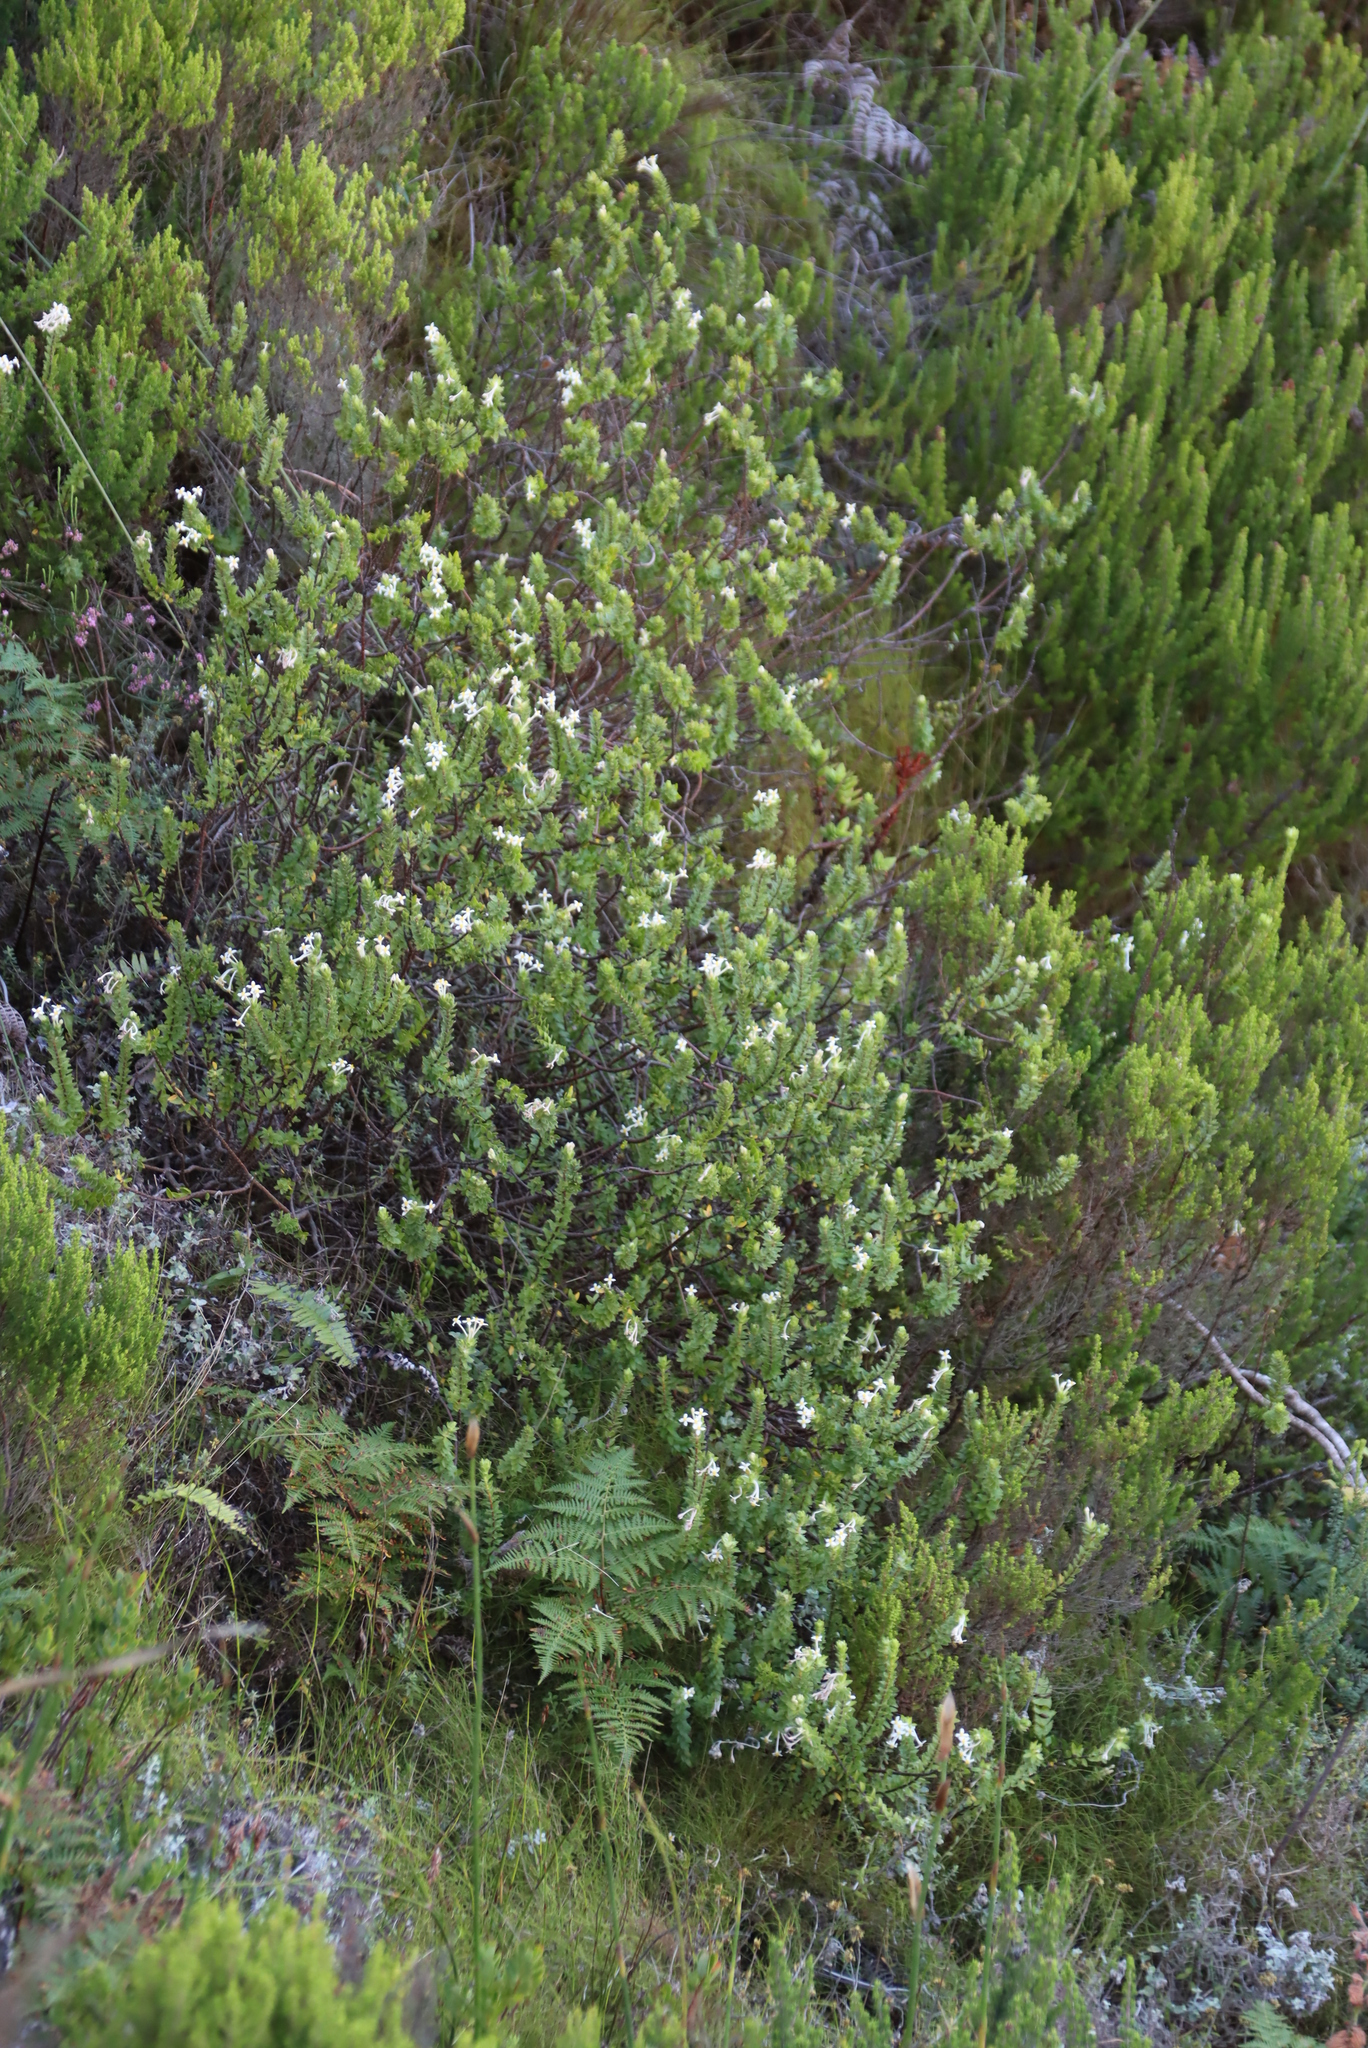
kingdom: Plantae
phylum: Tracheophyta
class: Magnoliopsida
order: Malvales
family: Thymelaeaceae
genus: Gnidia
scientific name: Gnidia tomentosa
